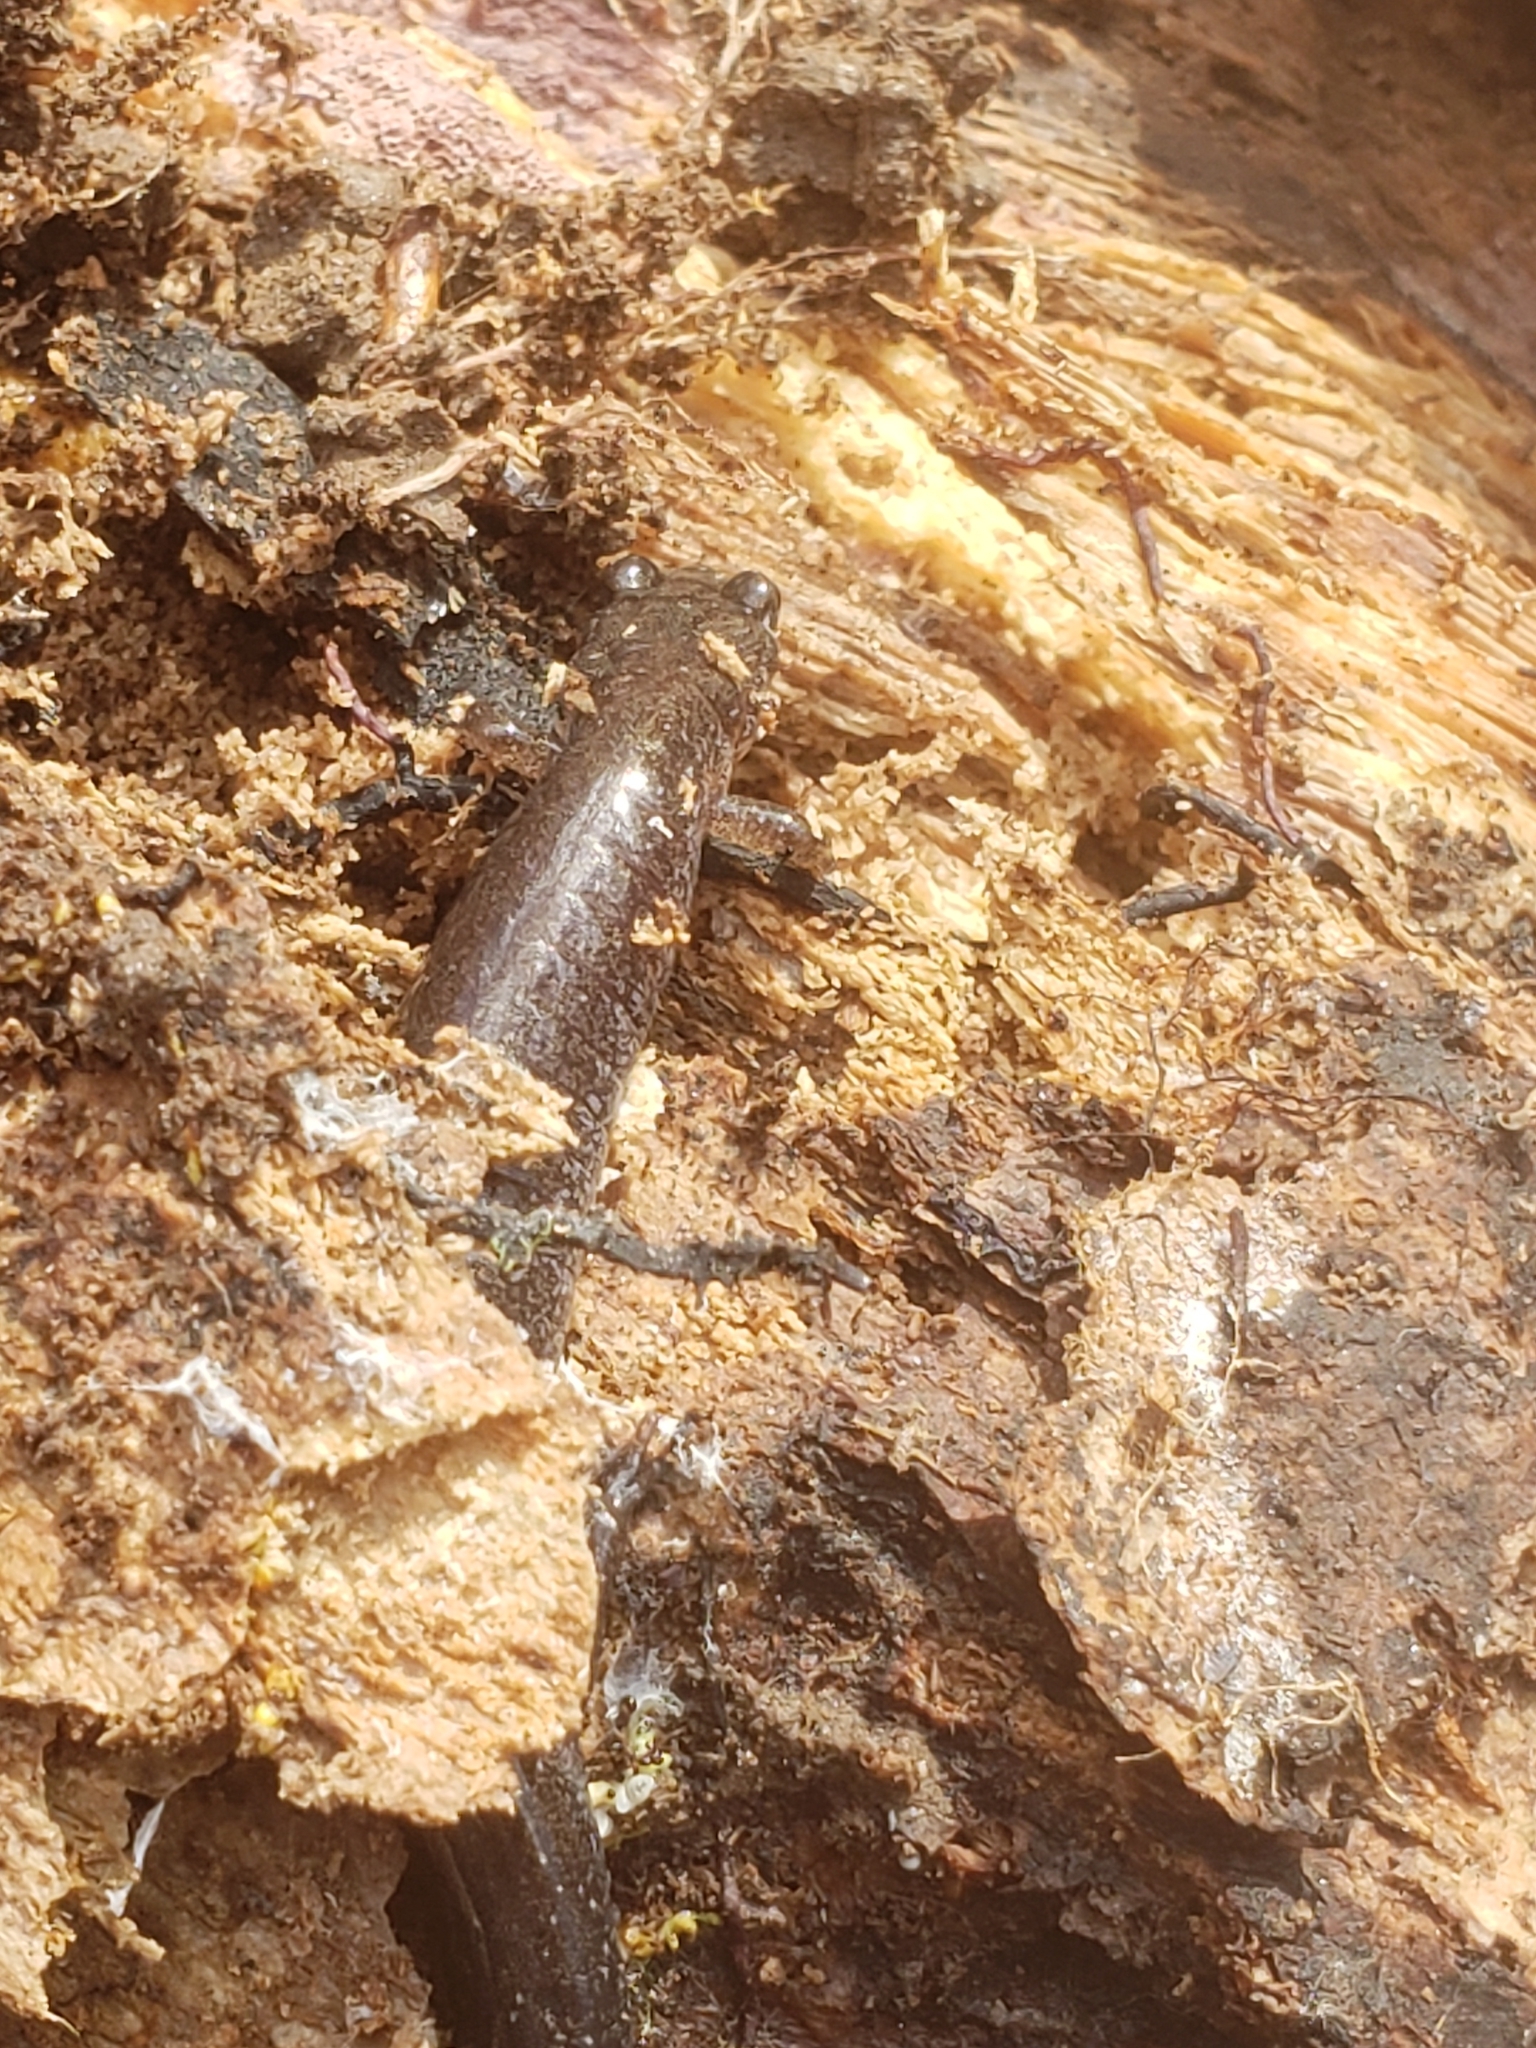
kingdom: Animalia
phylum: Chordata
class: Amphibia
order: Caudata
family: Plethodontidae
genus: Plethodon
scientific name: Plethodon cinereus
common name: Redback salamander
